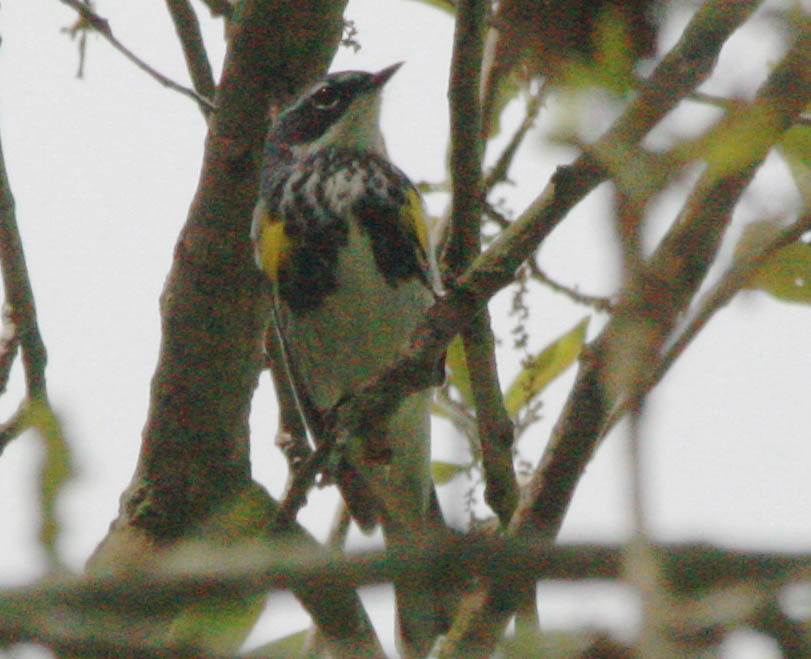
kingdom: Animalia
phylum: Chordata
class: Aves
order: Passeriformes
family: Parulidae
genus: Setophaga
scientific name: Setophaga coronata
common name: Myrtle warbler
